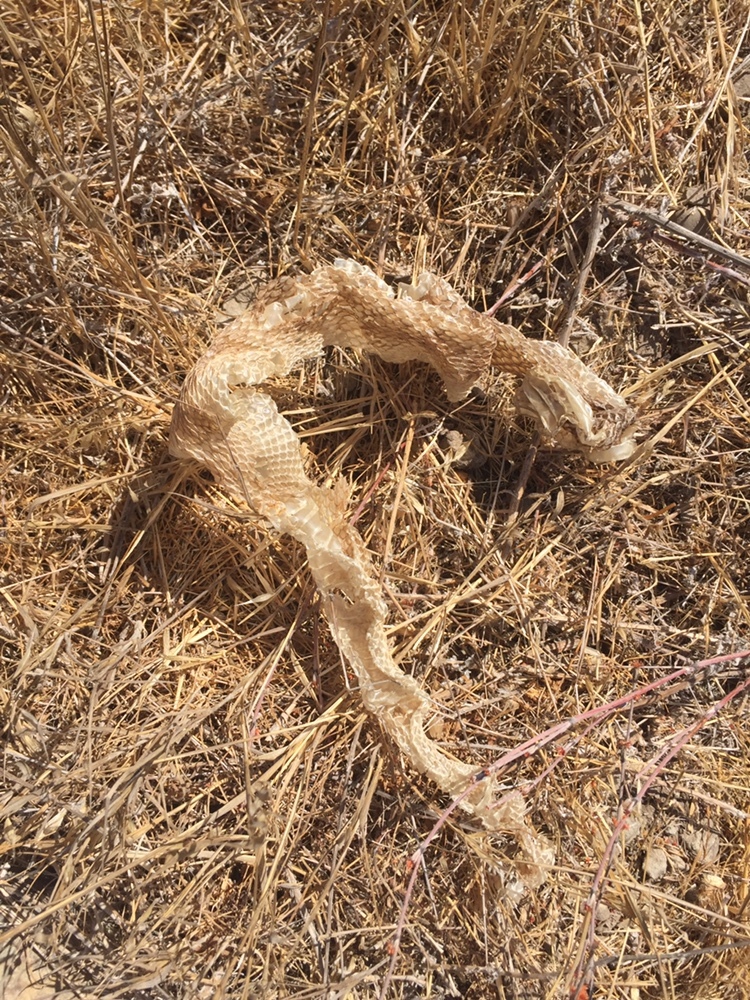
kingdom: Animalia
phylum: Chordata
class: Squamata
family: Viperidae
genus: Crotalus
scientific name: Crotalus oreganus
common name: Abyssus
